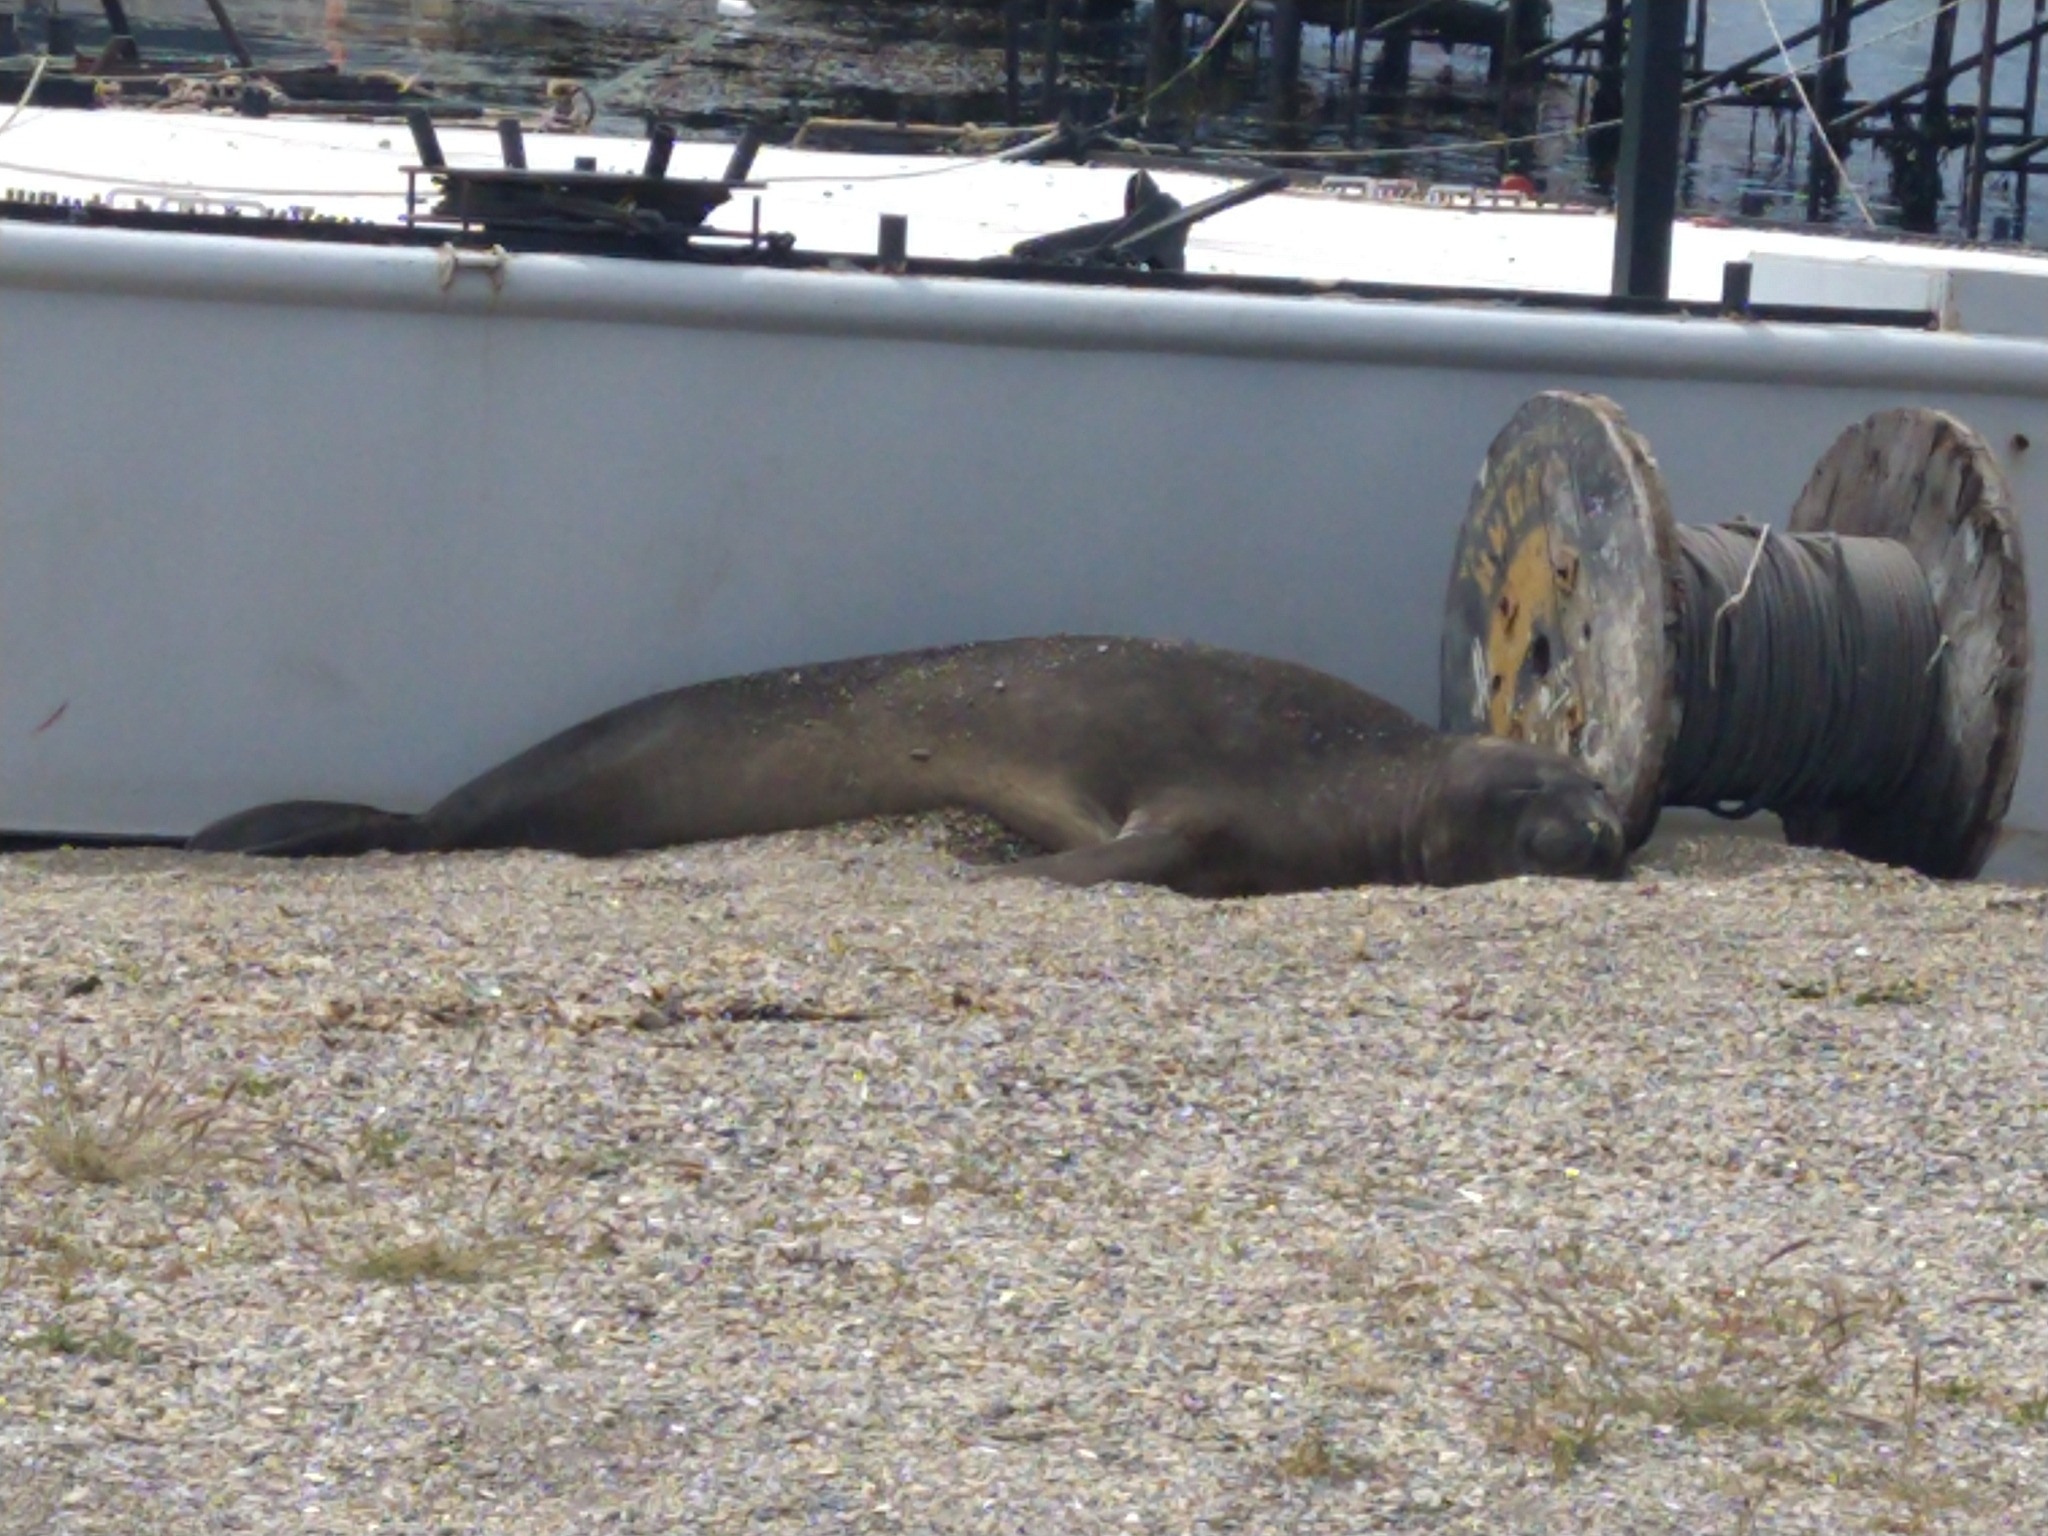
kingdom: Animalia
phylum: Chordata
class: Mammalia
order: Carnivora
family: Phocidae
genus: Mirounga
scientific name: Mirounga leonina
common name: Southern elephant seal
